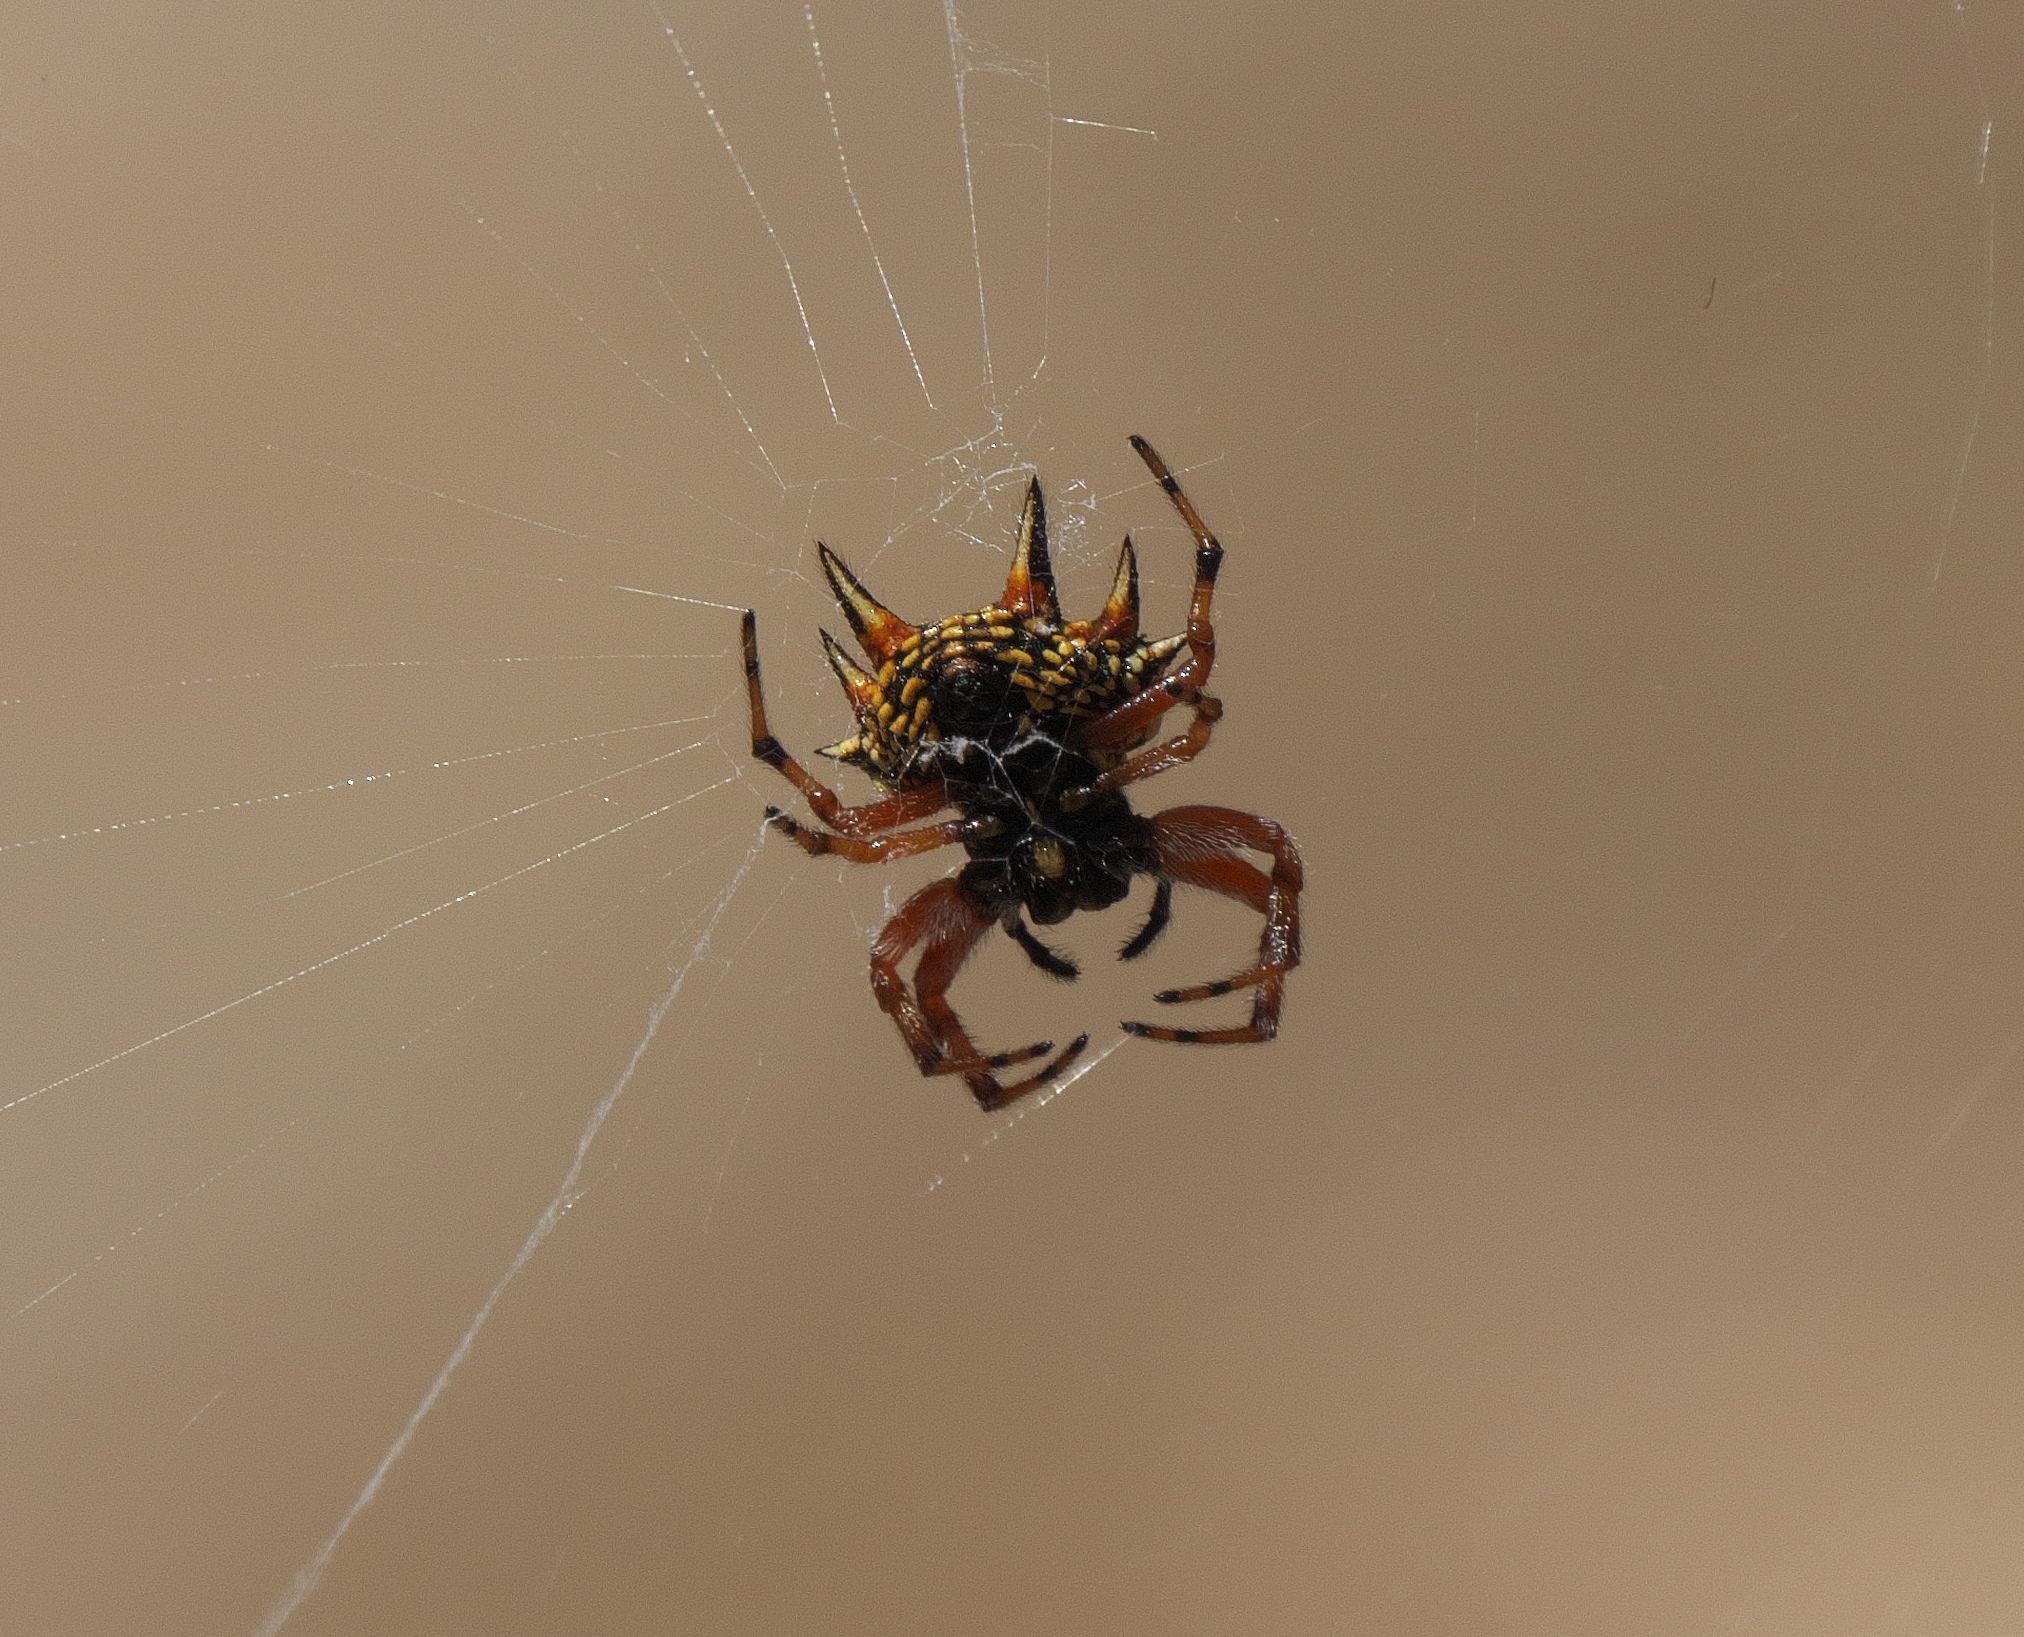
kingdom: Animalia
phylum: Arthropoda
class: Arachnida
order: Araneae
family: Araneidae
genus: Austracantha
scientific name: Austracantha minax
